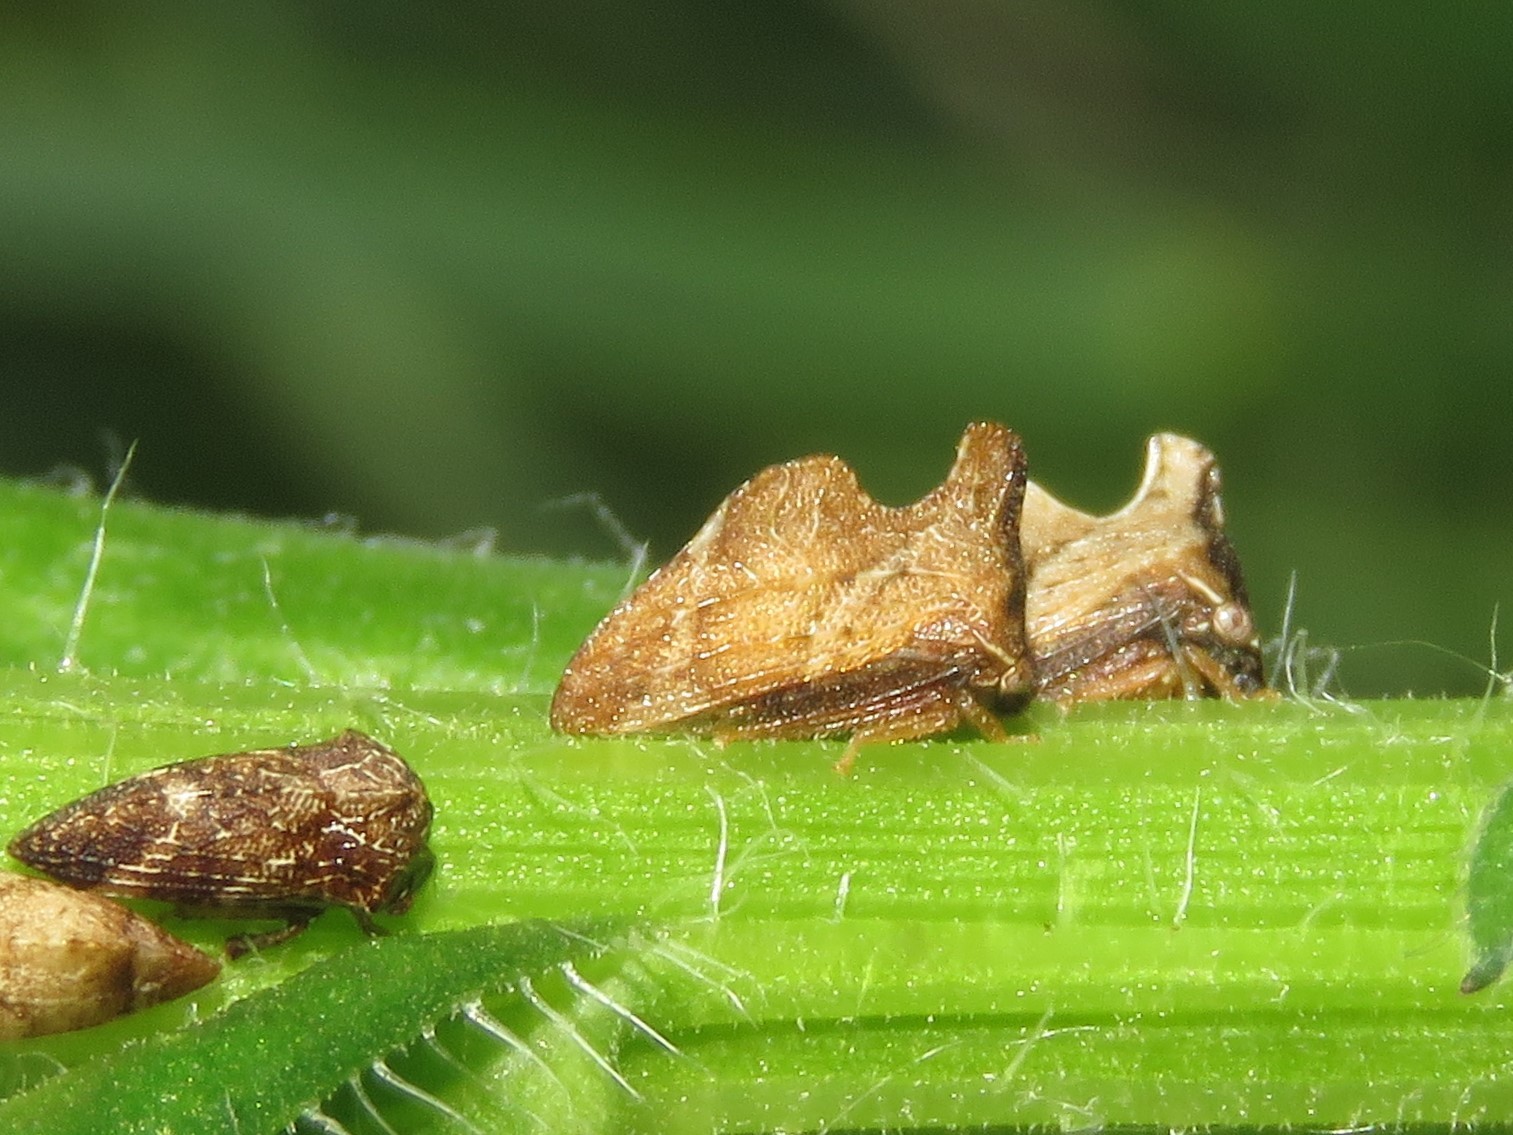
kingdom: Animalia
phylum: Arthropoda
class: Insecta
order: Hemiptera
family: Membracidae
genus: Entylia
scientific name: Entylia carinata
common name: Keeled treehopper
